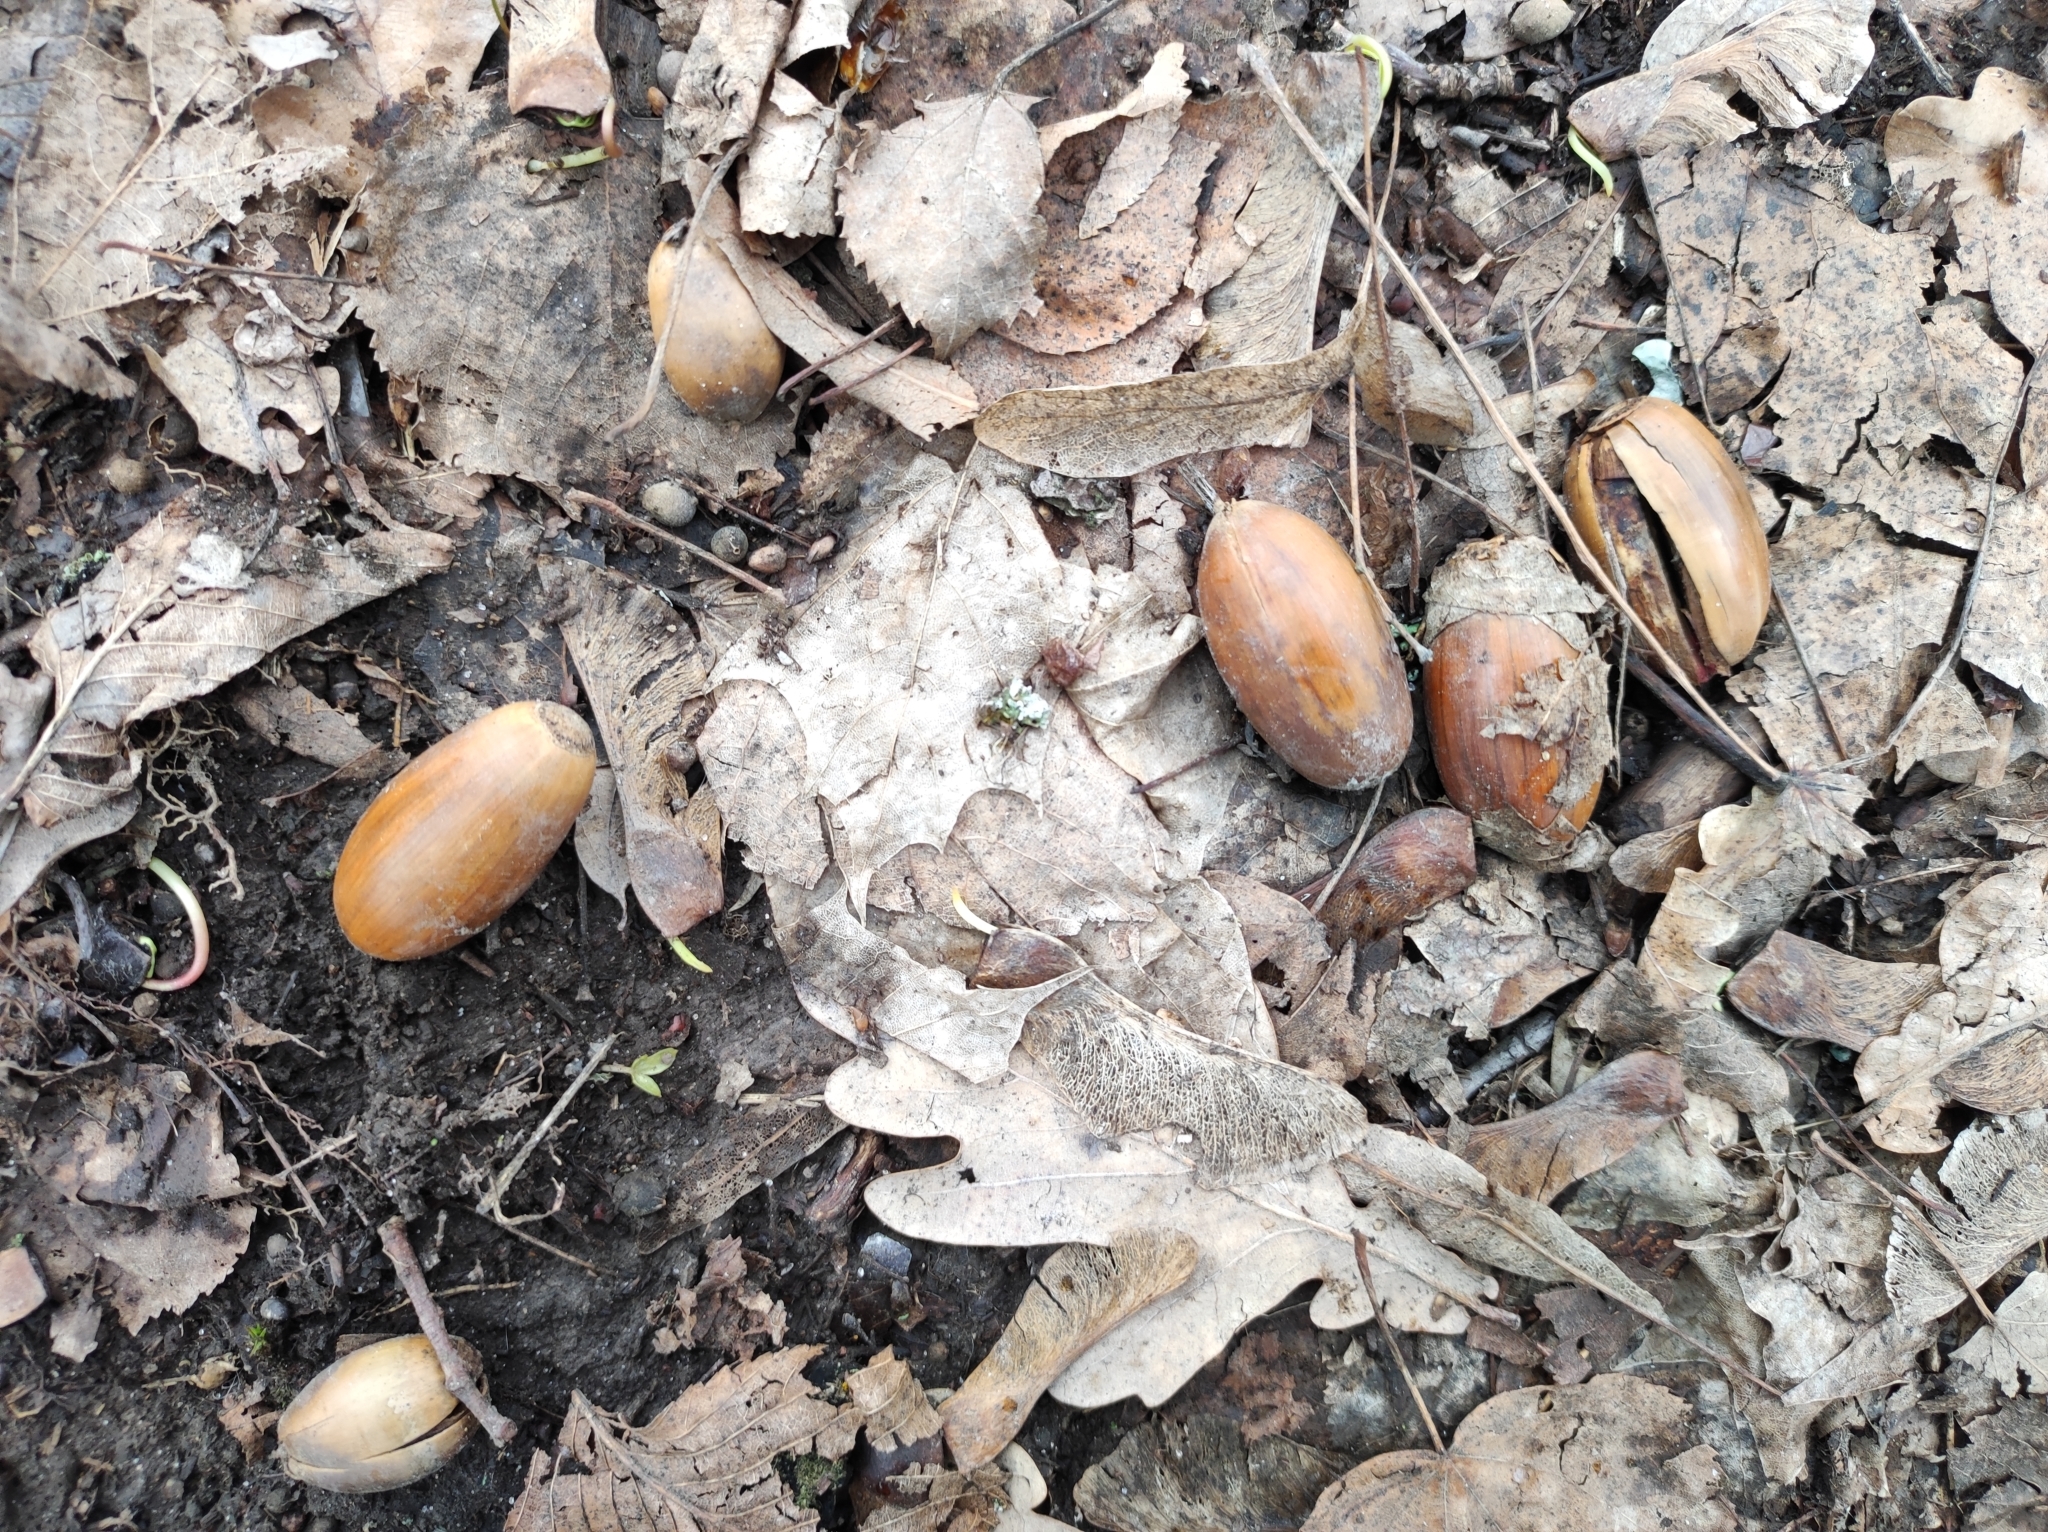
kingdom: Plantae
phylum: Tracheophyta
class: Magnoliopsida
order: Fagales
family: Fagaceae
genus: Quercus
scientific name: Quercus robur
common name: Pedunculate oak
